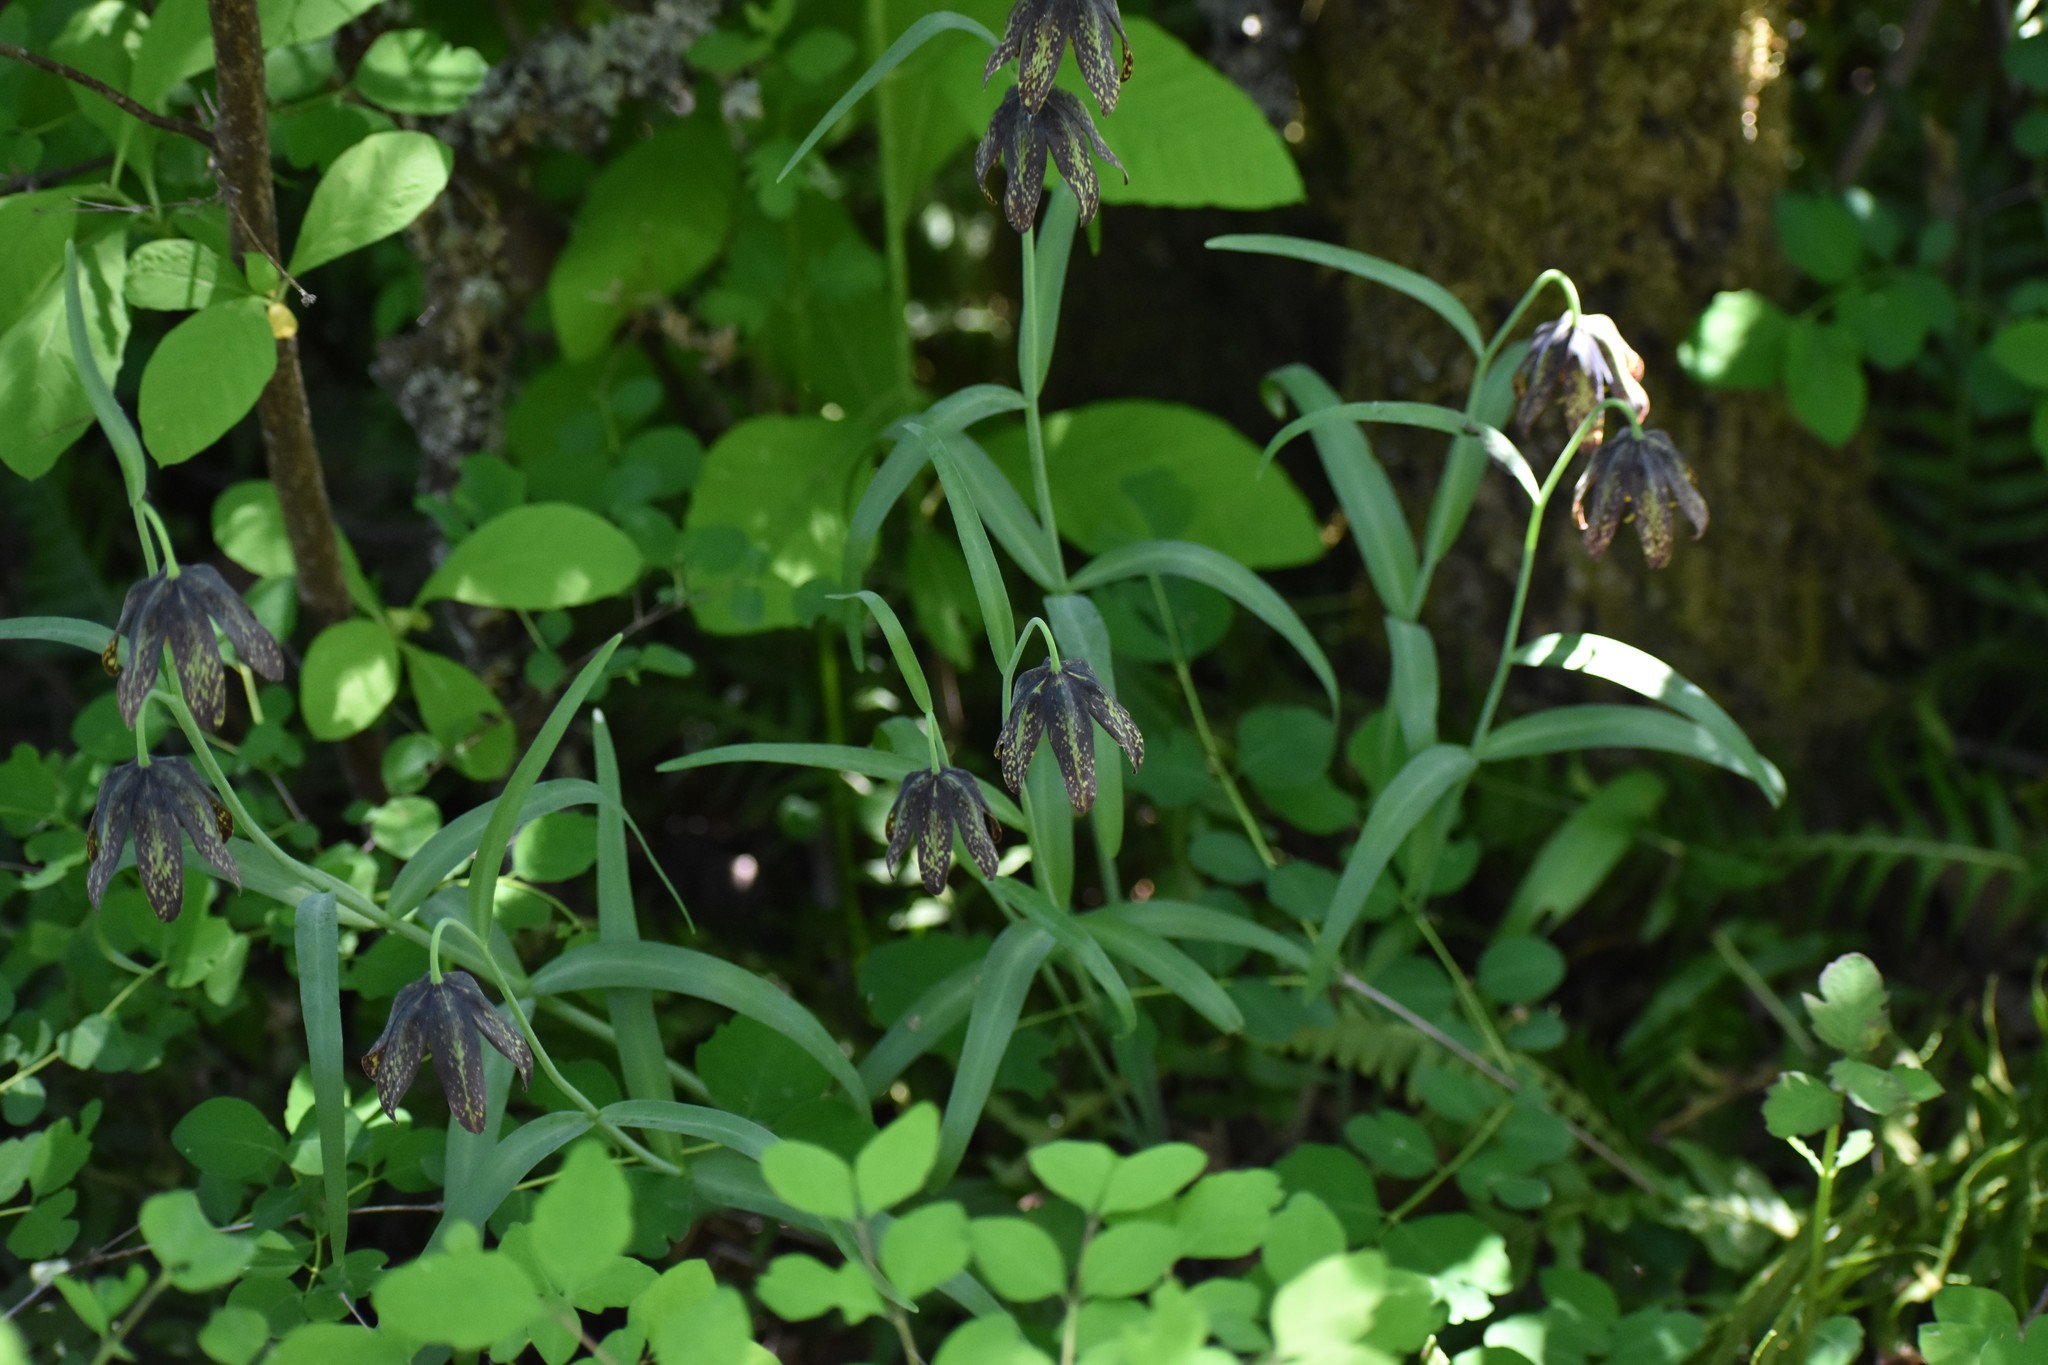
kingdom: Plantae
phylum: Tracheophyta
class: Liliopsida
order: Liliales
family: Liliaceae
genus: Fritillaria
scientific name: Fritillaria affinis
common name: Ojai fritillary
